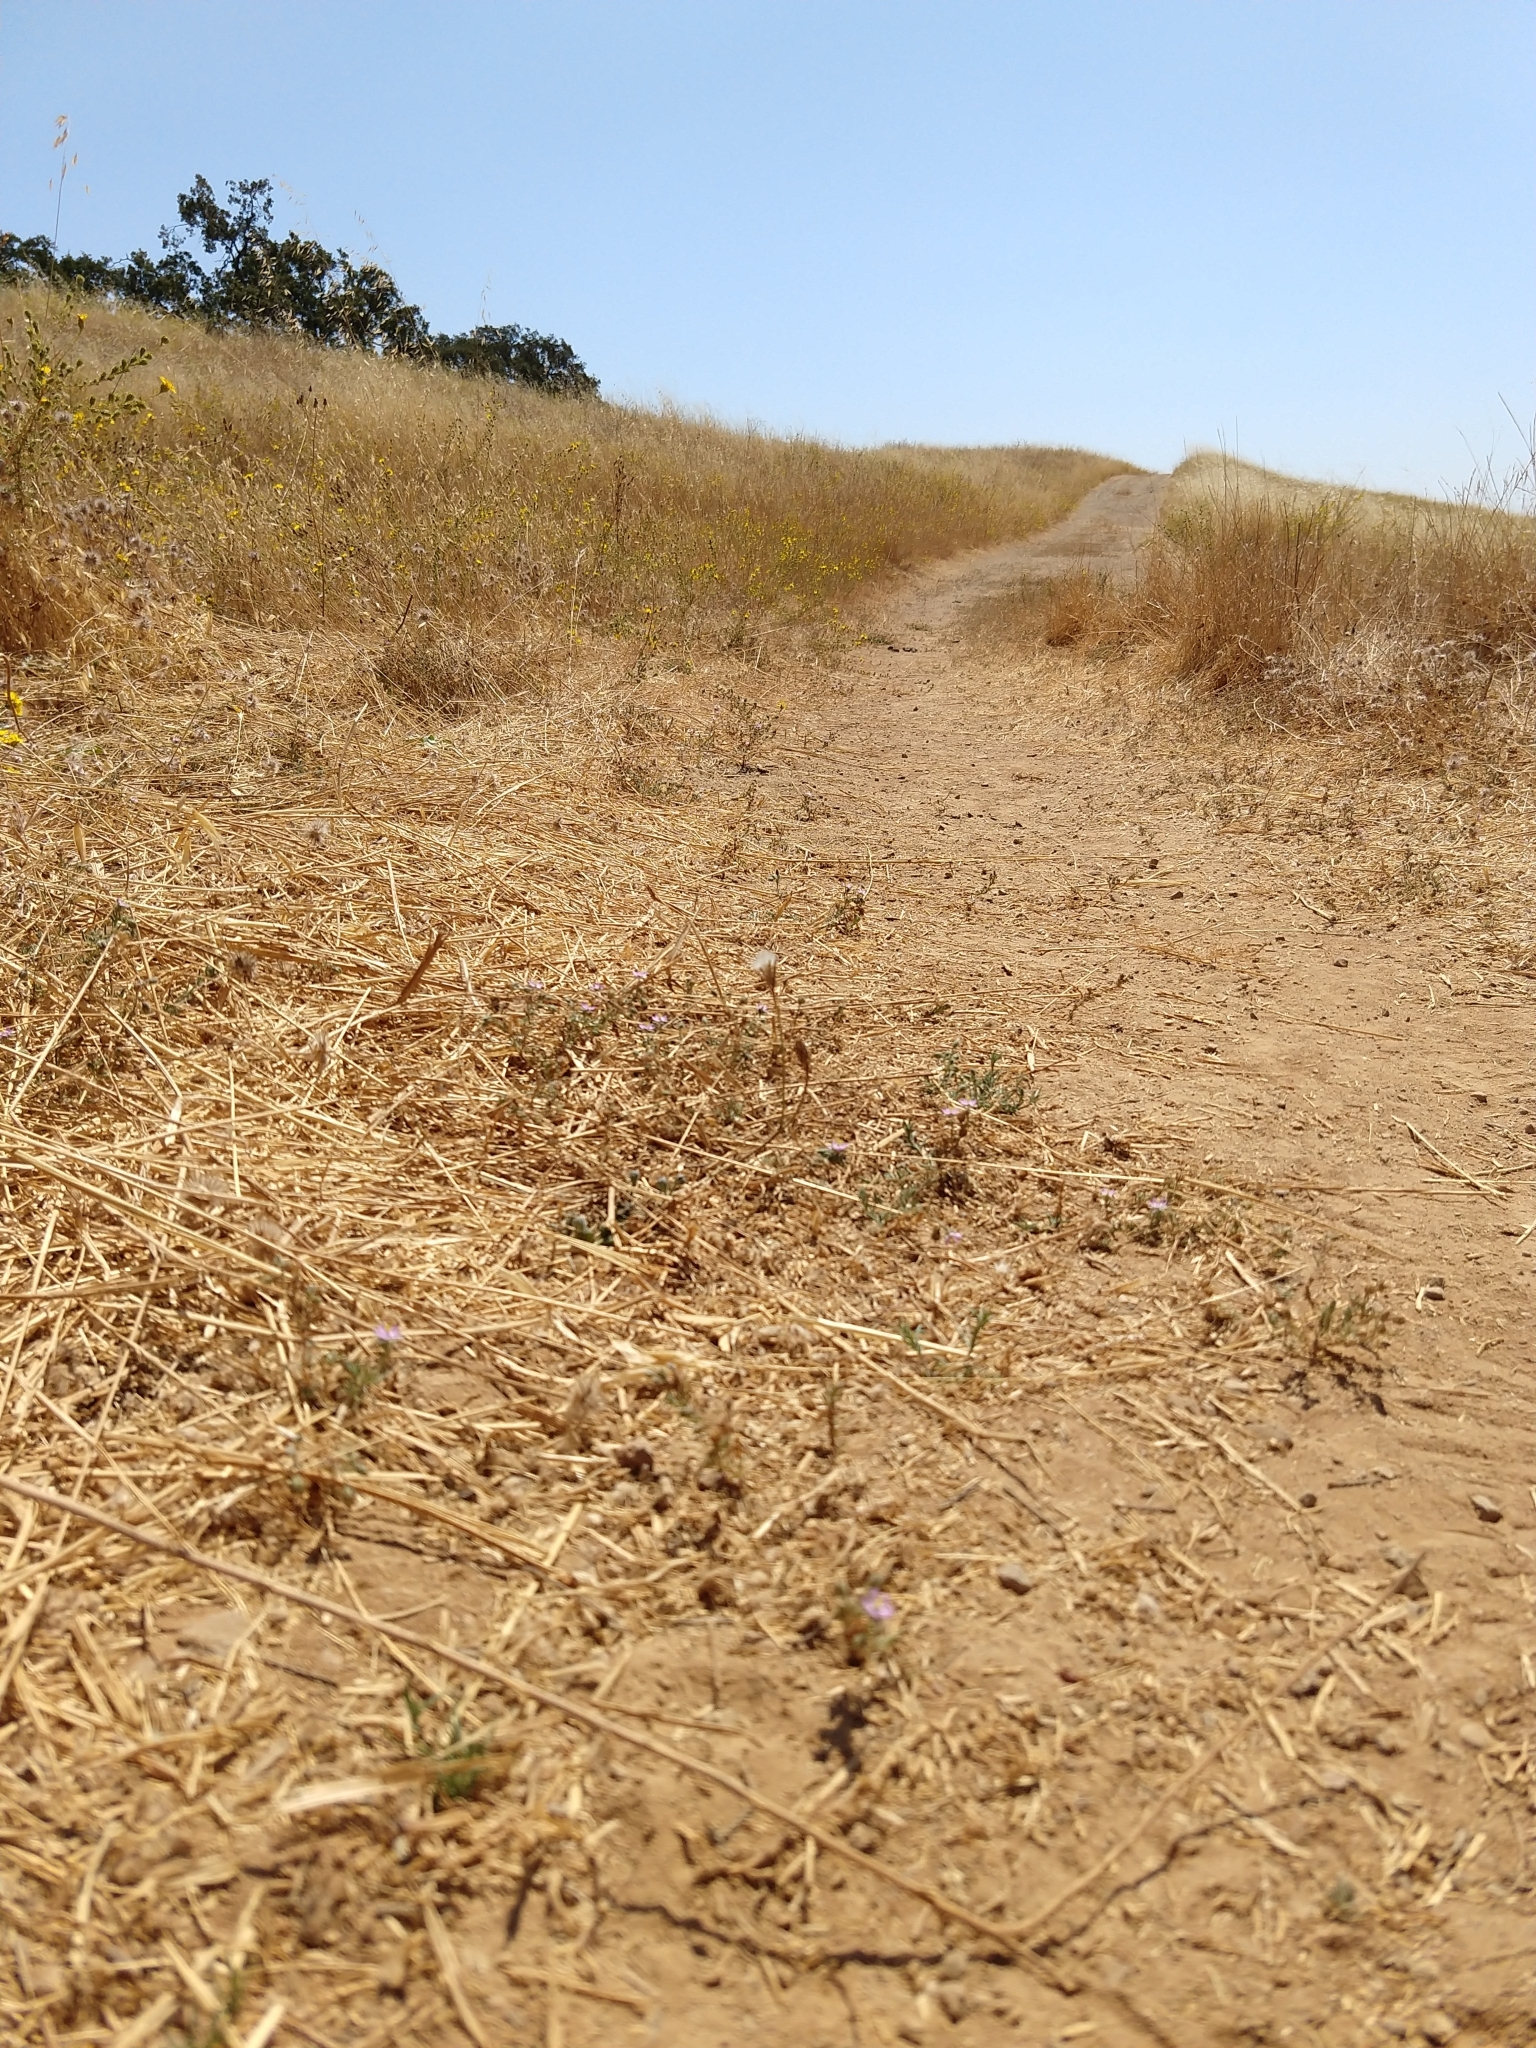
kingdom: Plantae
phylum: Tracheophyta
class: Magnoliopsida
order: Caryophyllales
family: Caryophyllaceae
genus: Spergularia
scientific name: Spergularia rubra
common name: Red sand-spurrey
